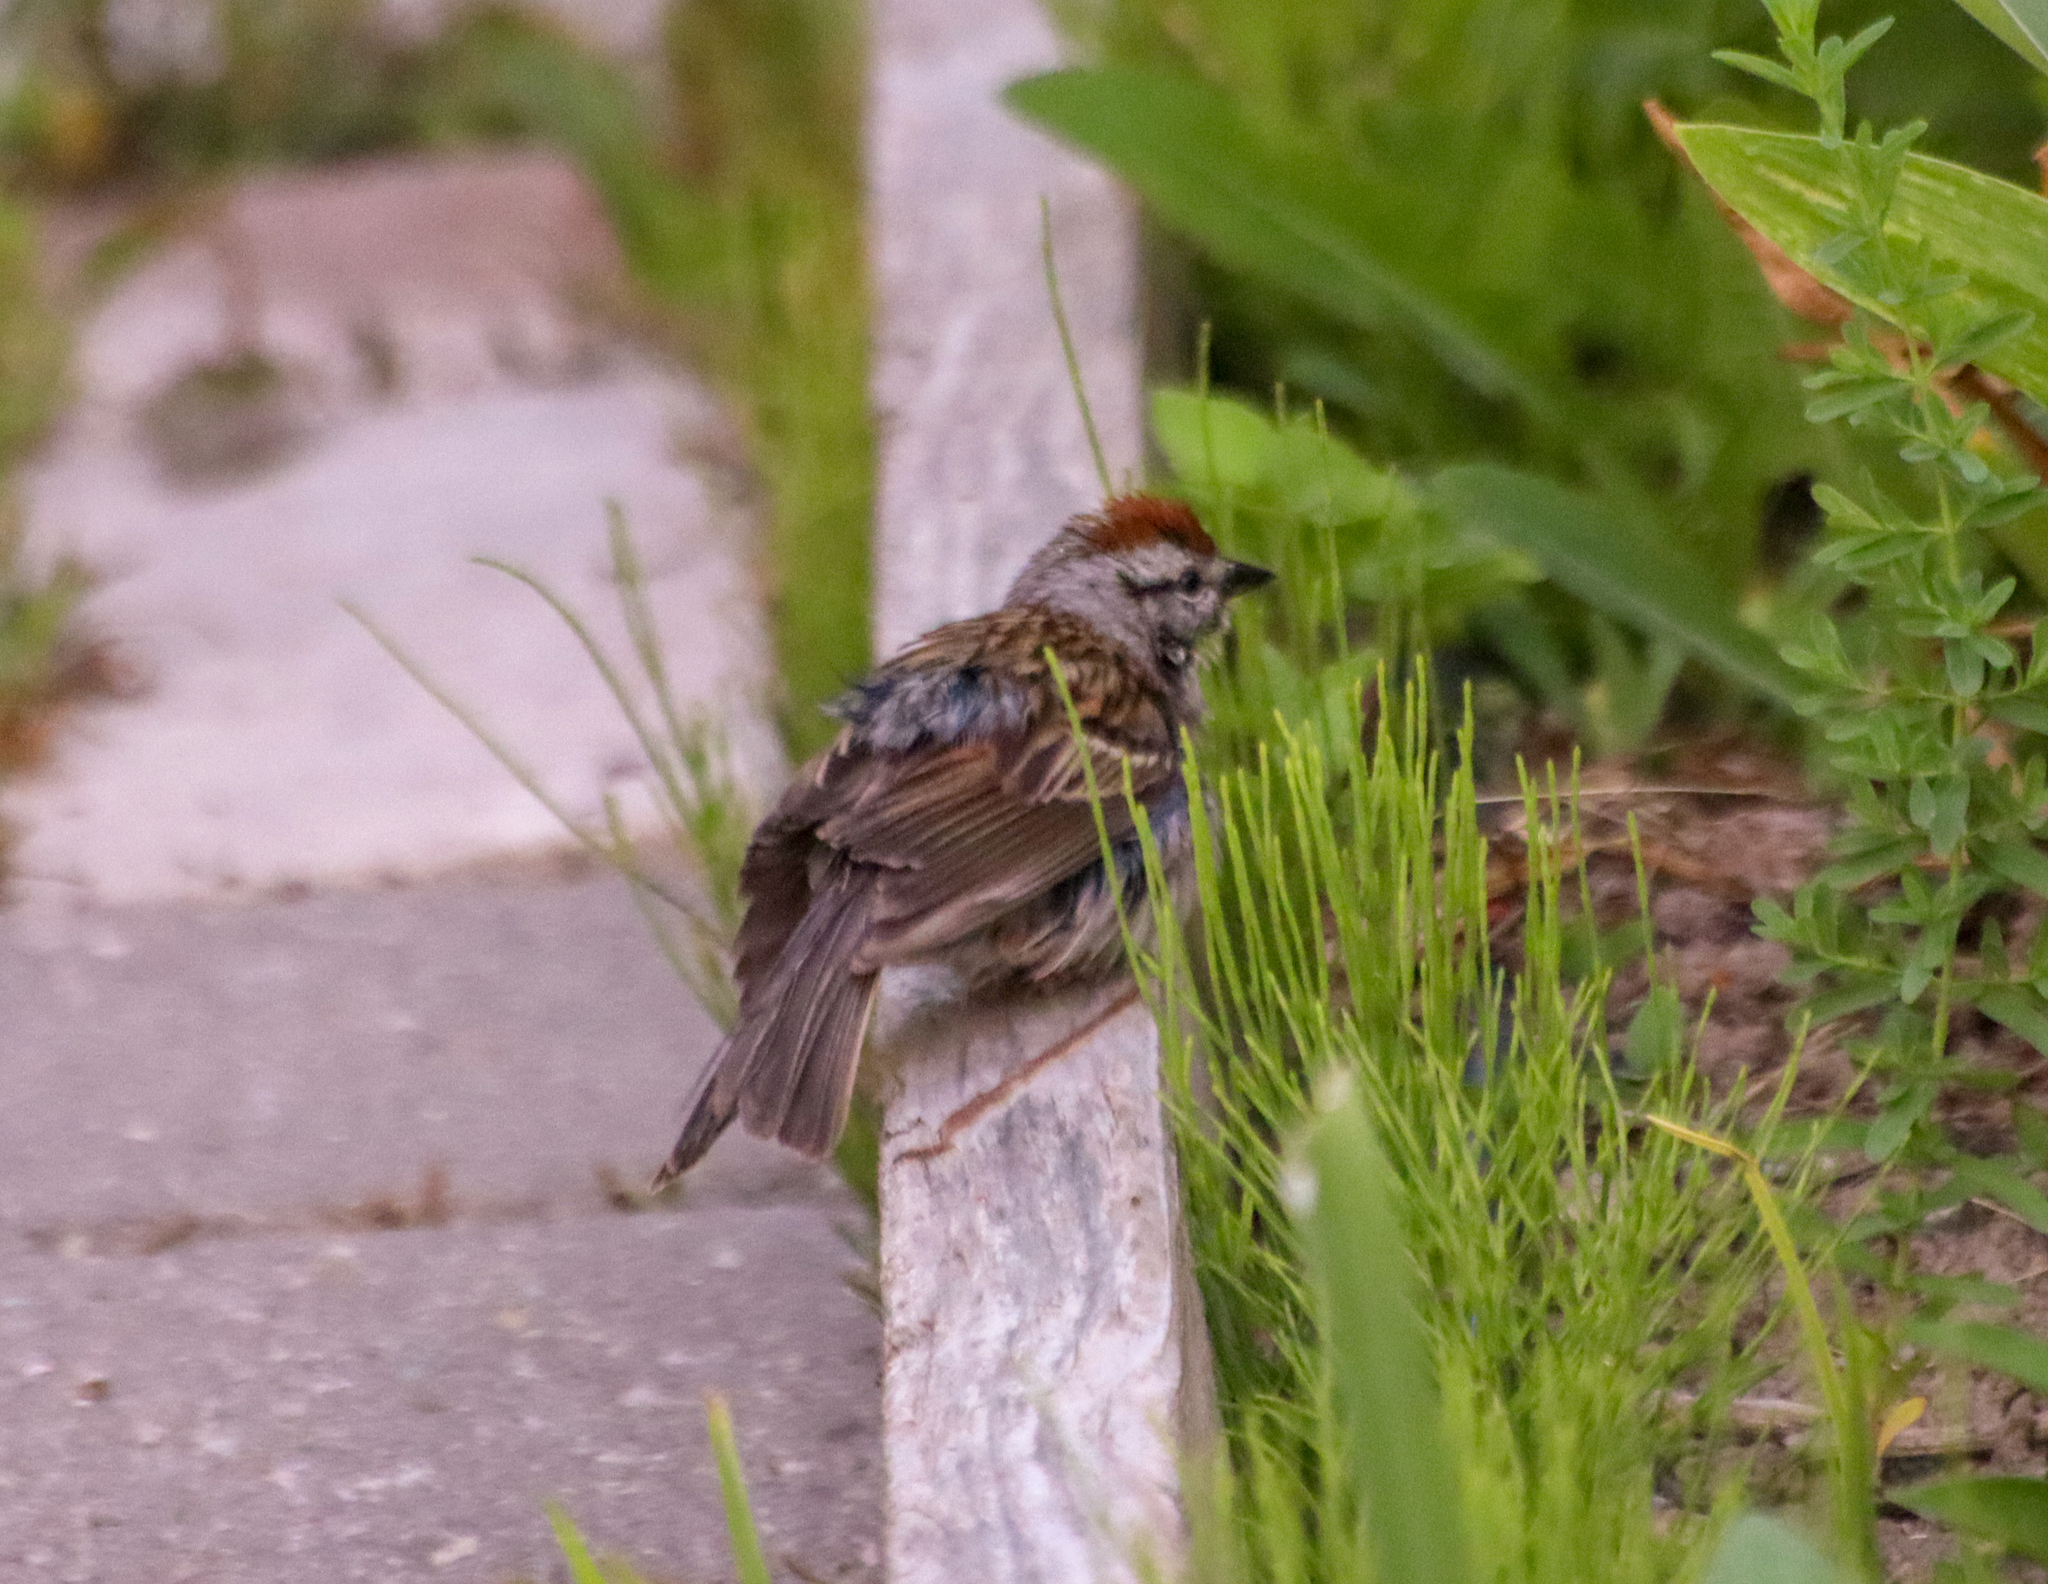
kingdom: Animalia
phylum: Chordata
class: Aves
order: Passeriformes
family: Passerellidae
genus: Spizella
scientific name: Spizella passerina
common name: Chipping sparrow
